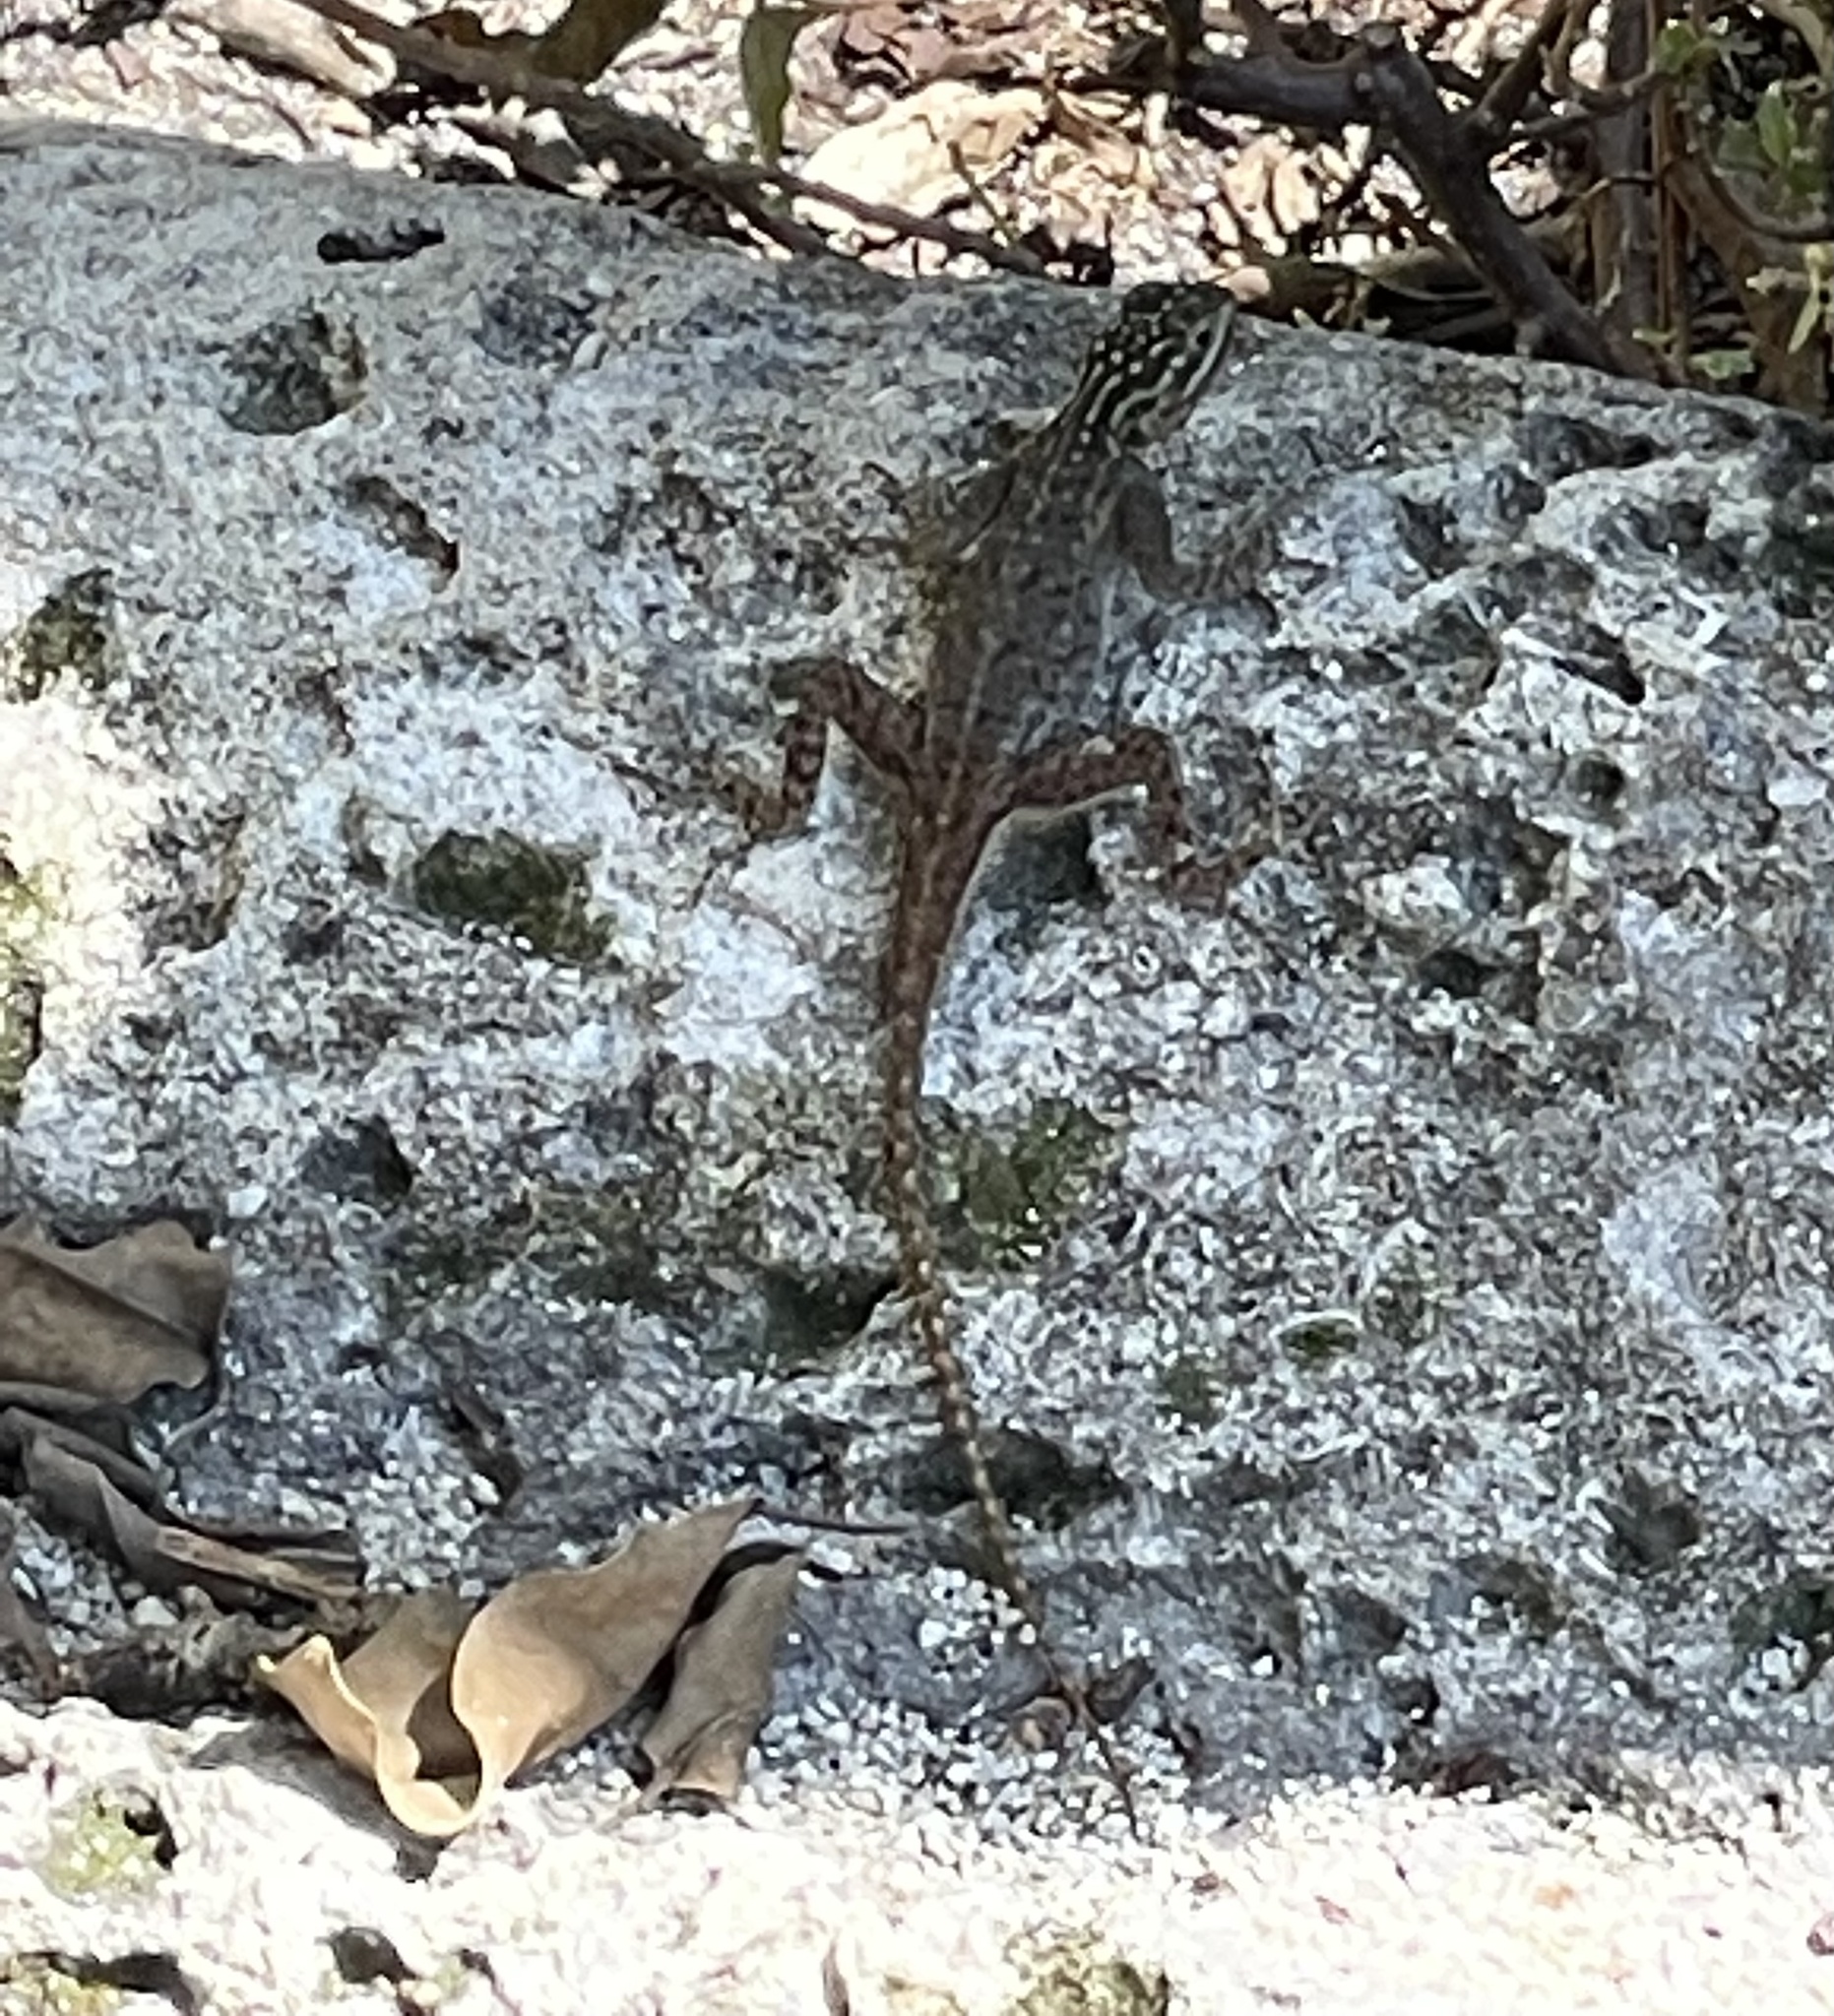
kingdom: Animalia
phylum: Chordata
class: Squamata
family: Agamidae
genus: Agama
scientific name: Agama picticauda
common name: Red-headed agama
